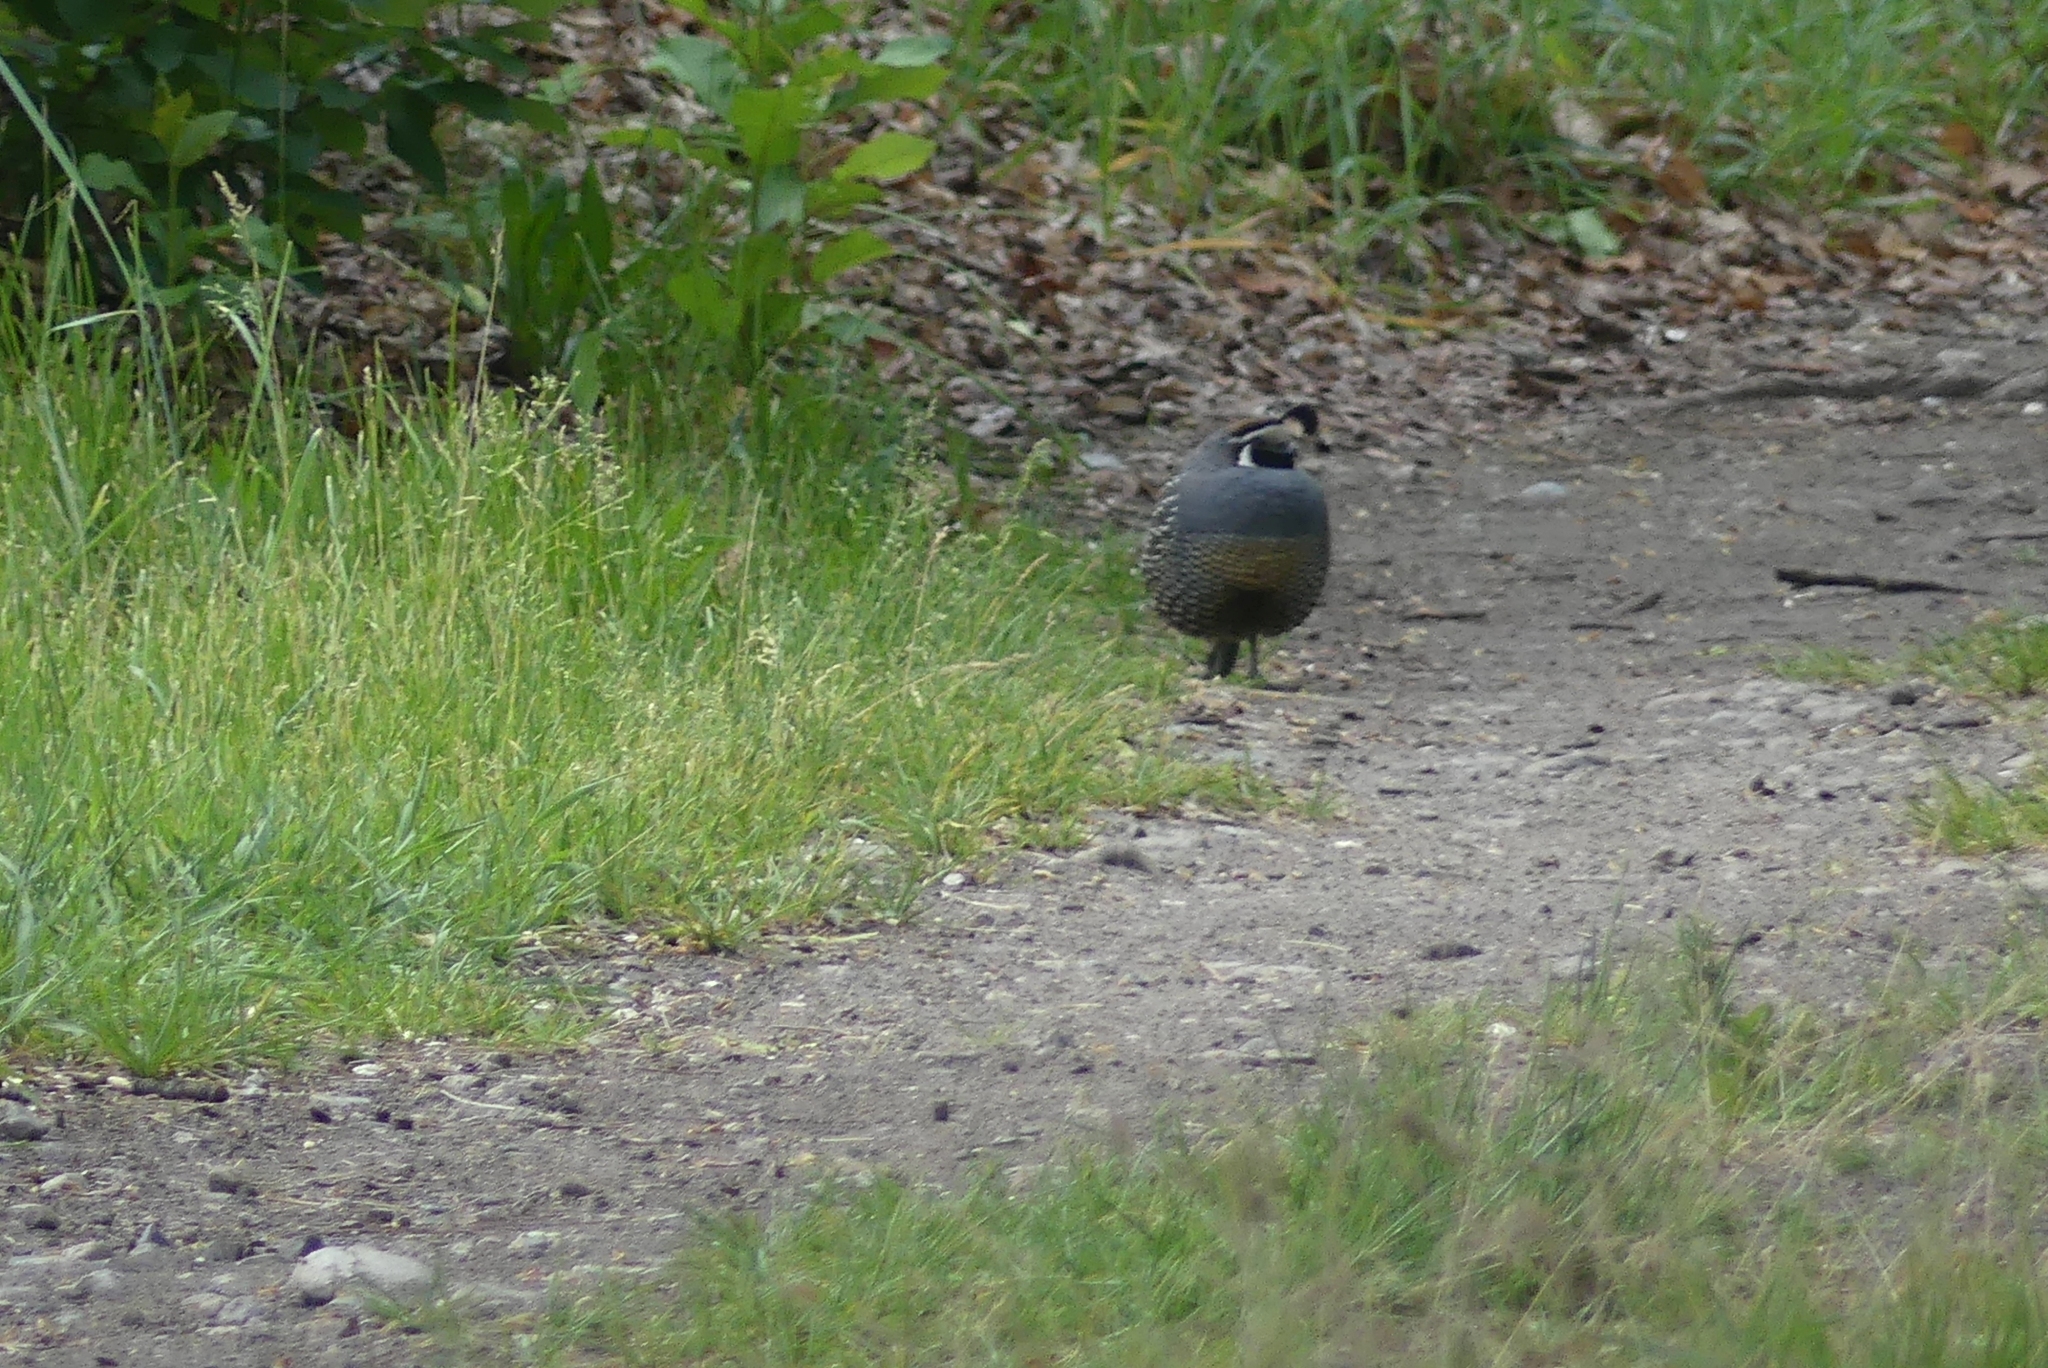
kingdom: Animalia
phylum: Chordata
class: Aves
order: Galliformes
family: Odontophoridae
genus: Callipepla
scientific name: Callipepla californica
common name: California quail
